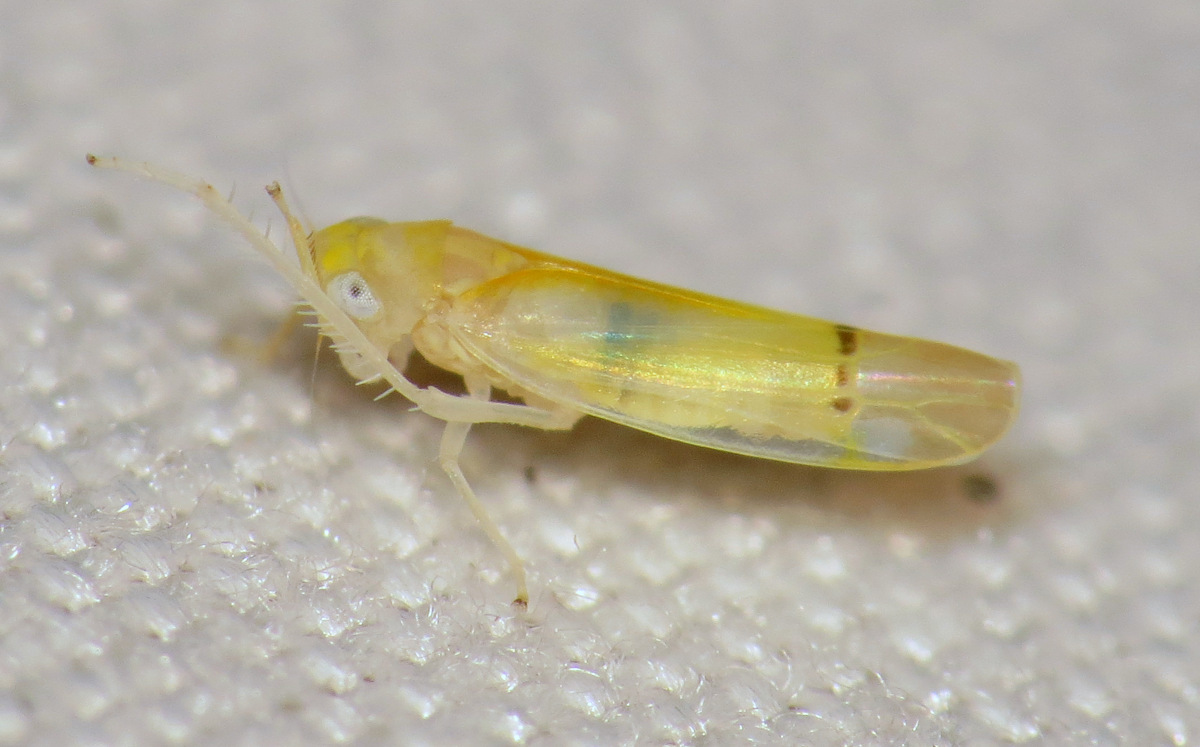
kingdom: Animalia
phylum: Arthropoda
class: Insecta
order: Hemiptera
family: Cicadellidae
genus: Ossiannilssonola
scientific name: Ossiannilssonola australis
